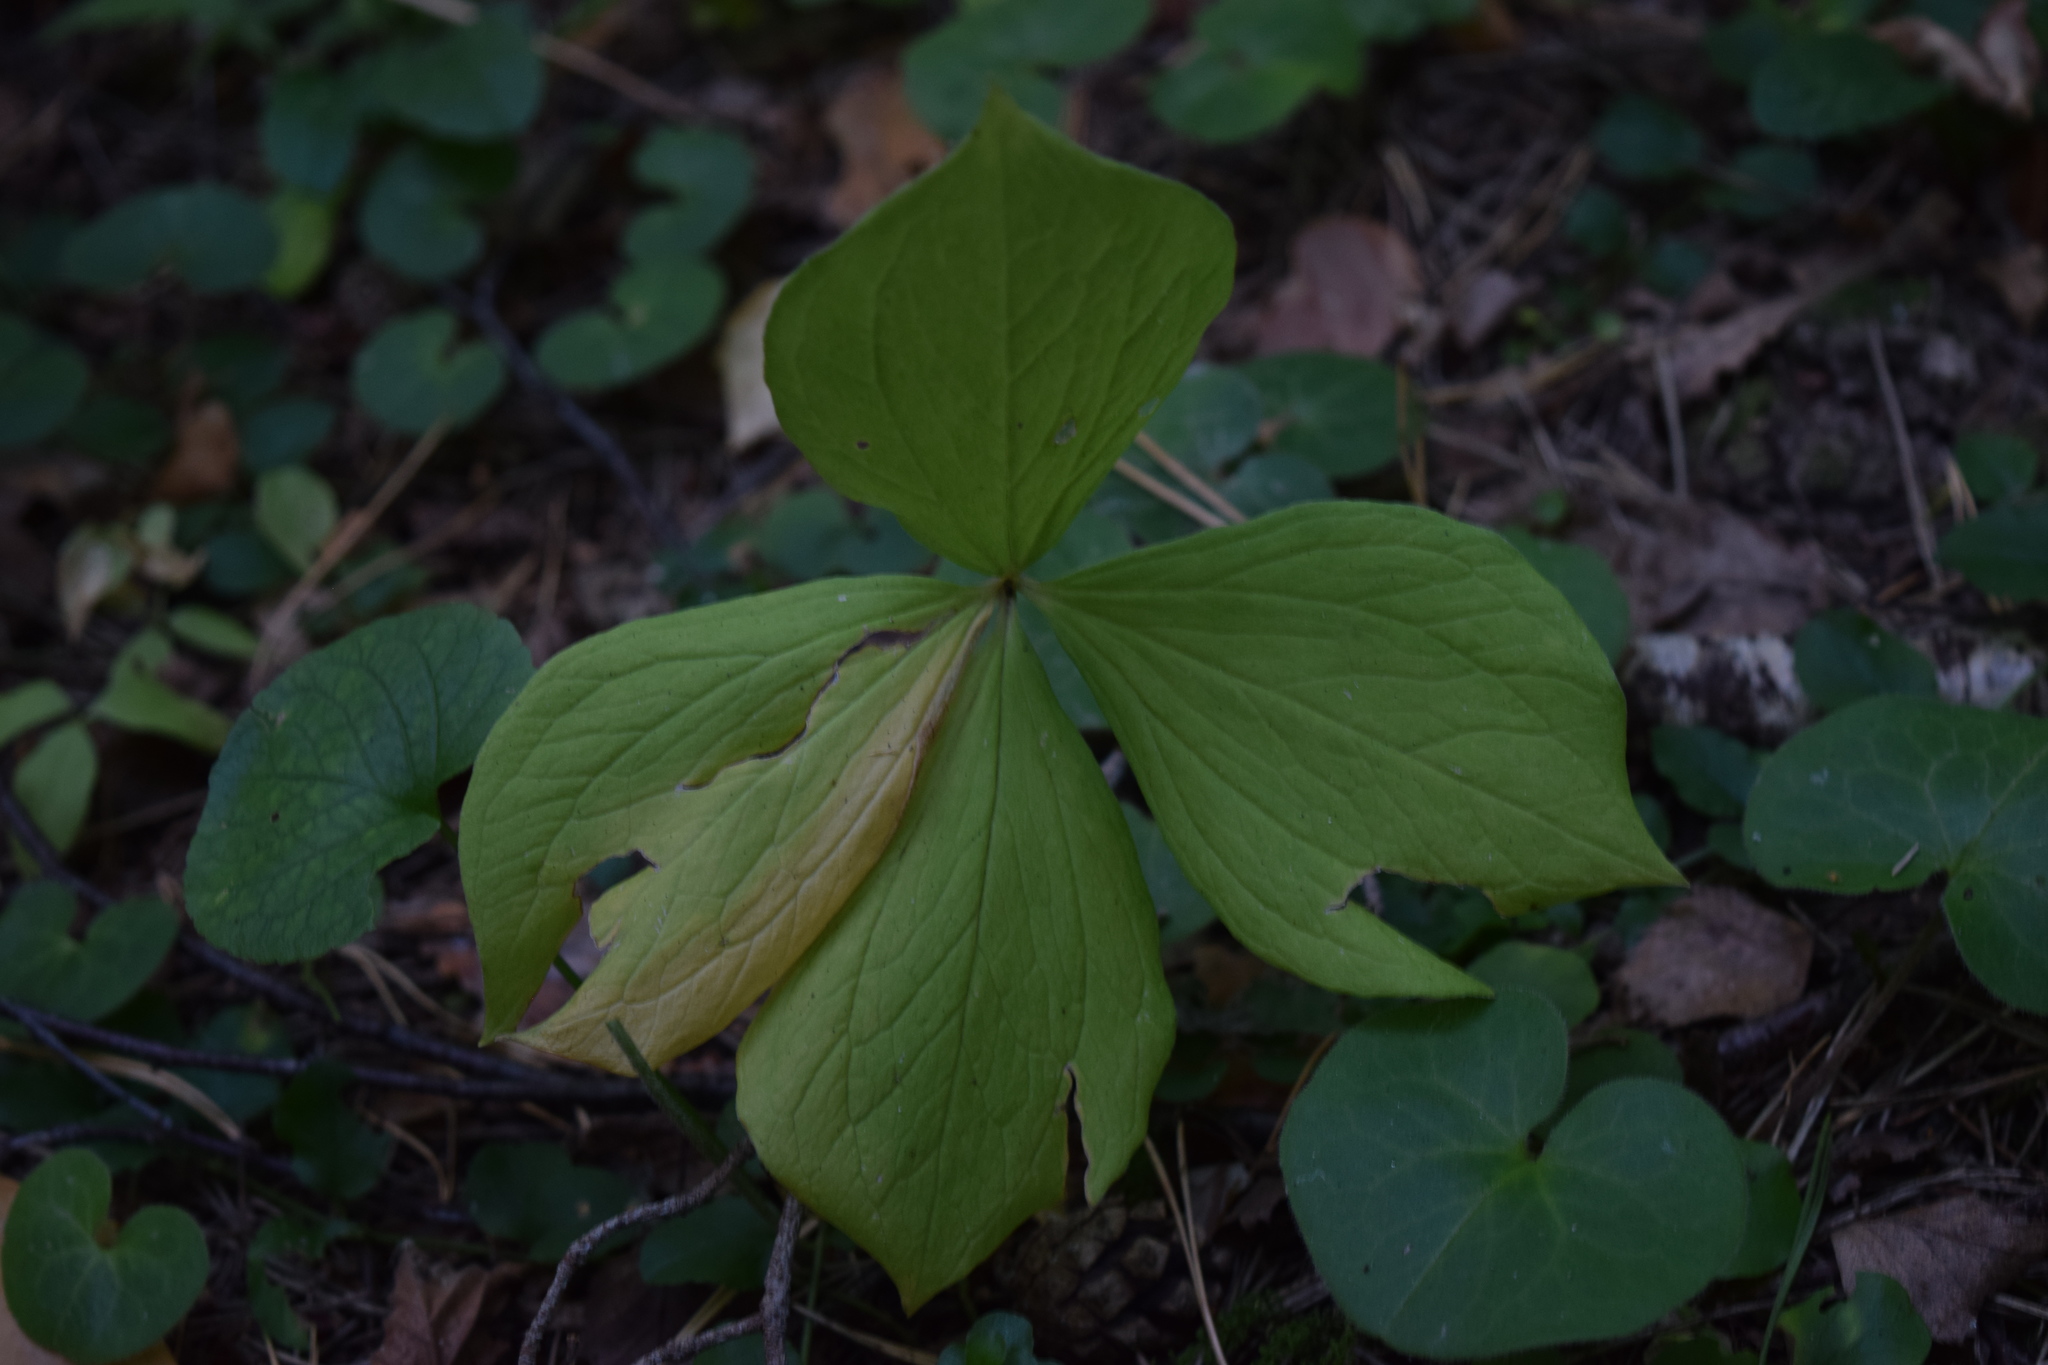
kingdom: Plantae
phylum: Tracheophyta
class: Liliopsida
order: Liliales
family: Melanthiaceae
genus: Paris
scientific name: Paris quadrifolia
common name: Herb-paris
